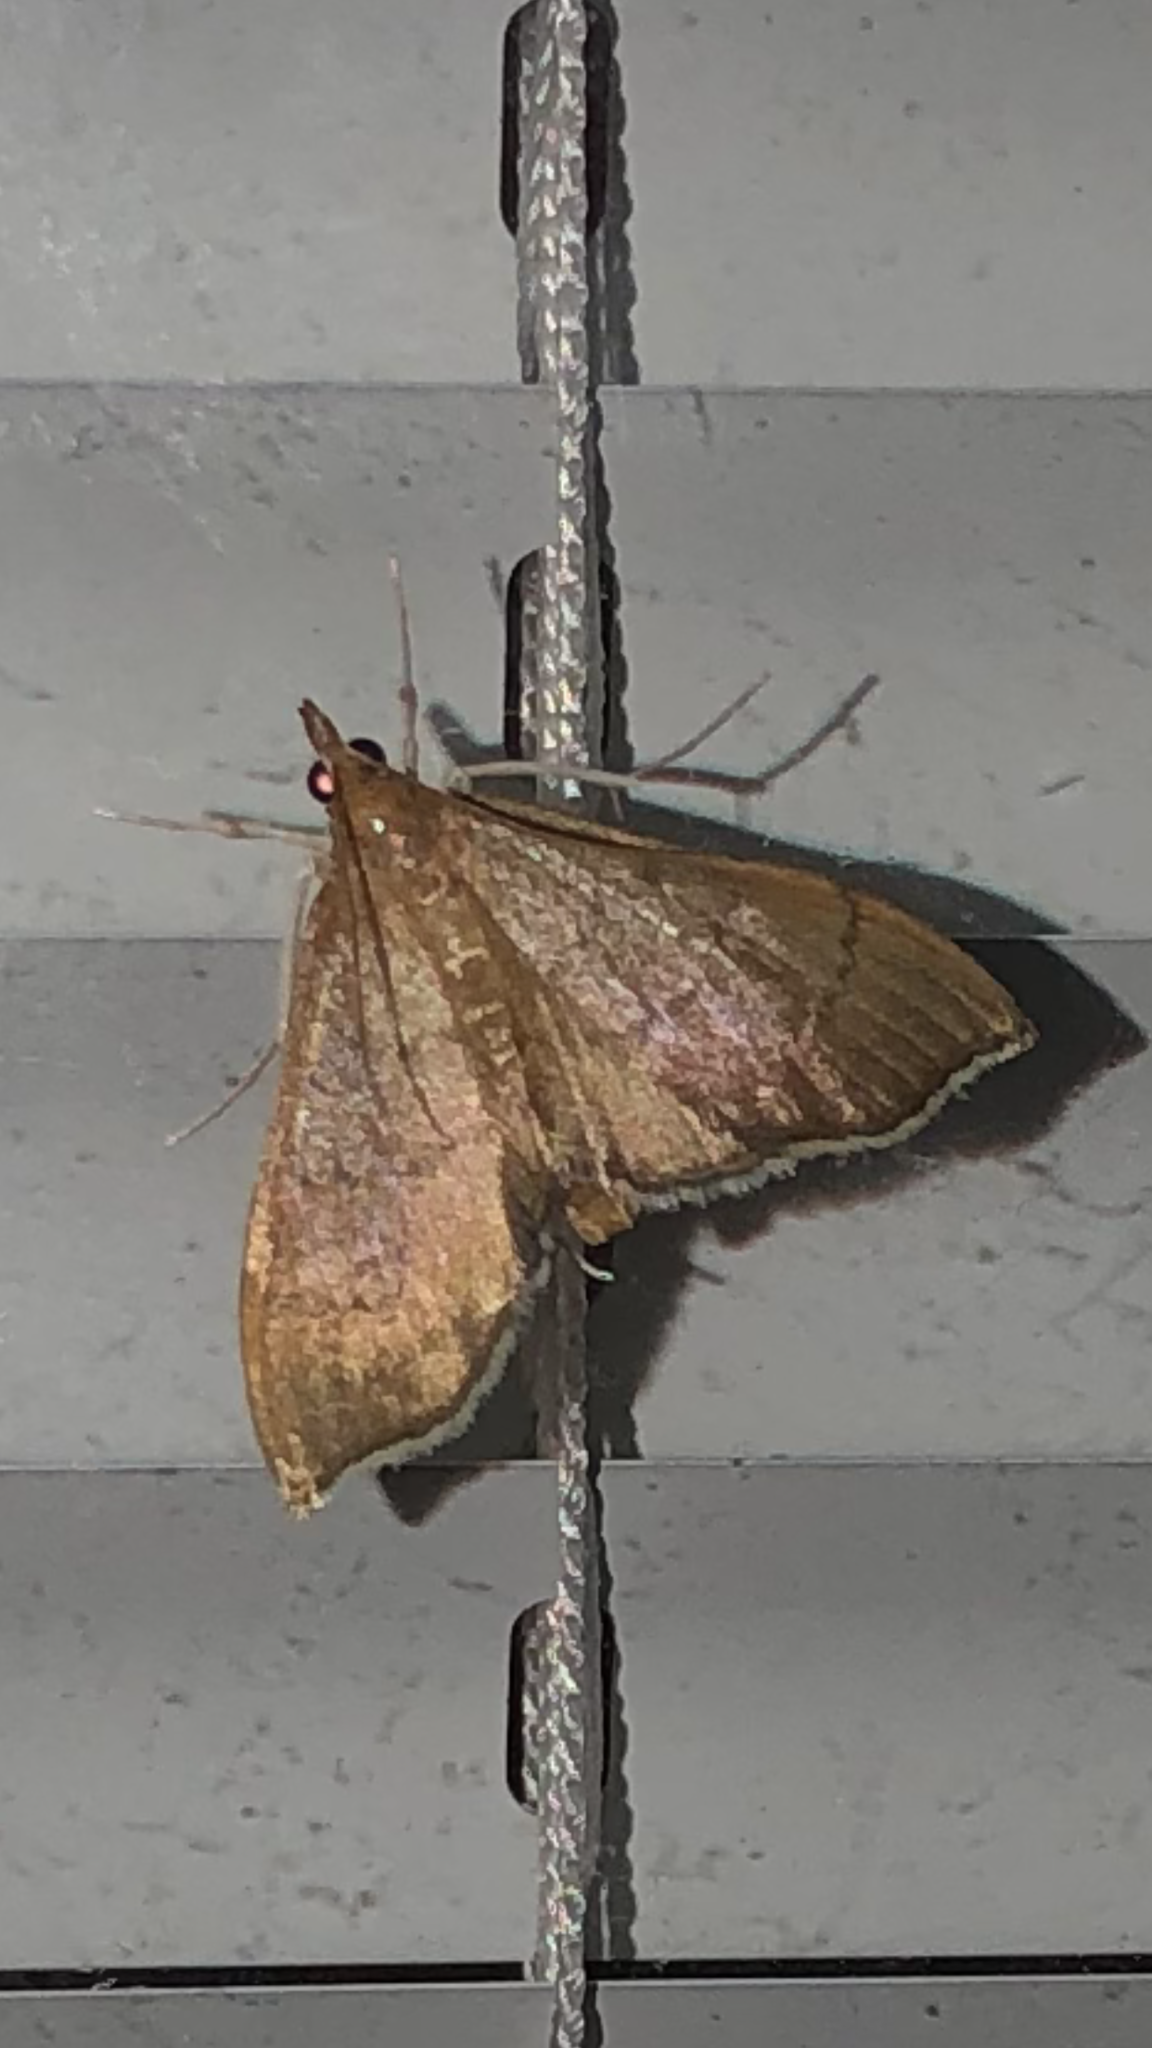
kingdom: Animalia
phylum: Arthropoda
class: Insecta
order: Lepidoptera
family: Crambidae
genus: Sericoplaga
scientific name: Sericoplaga externalis
